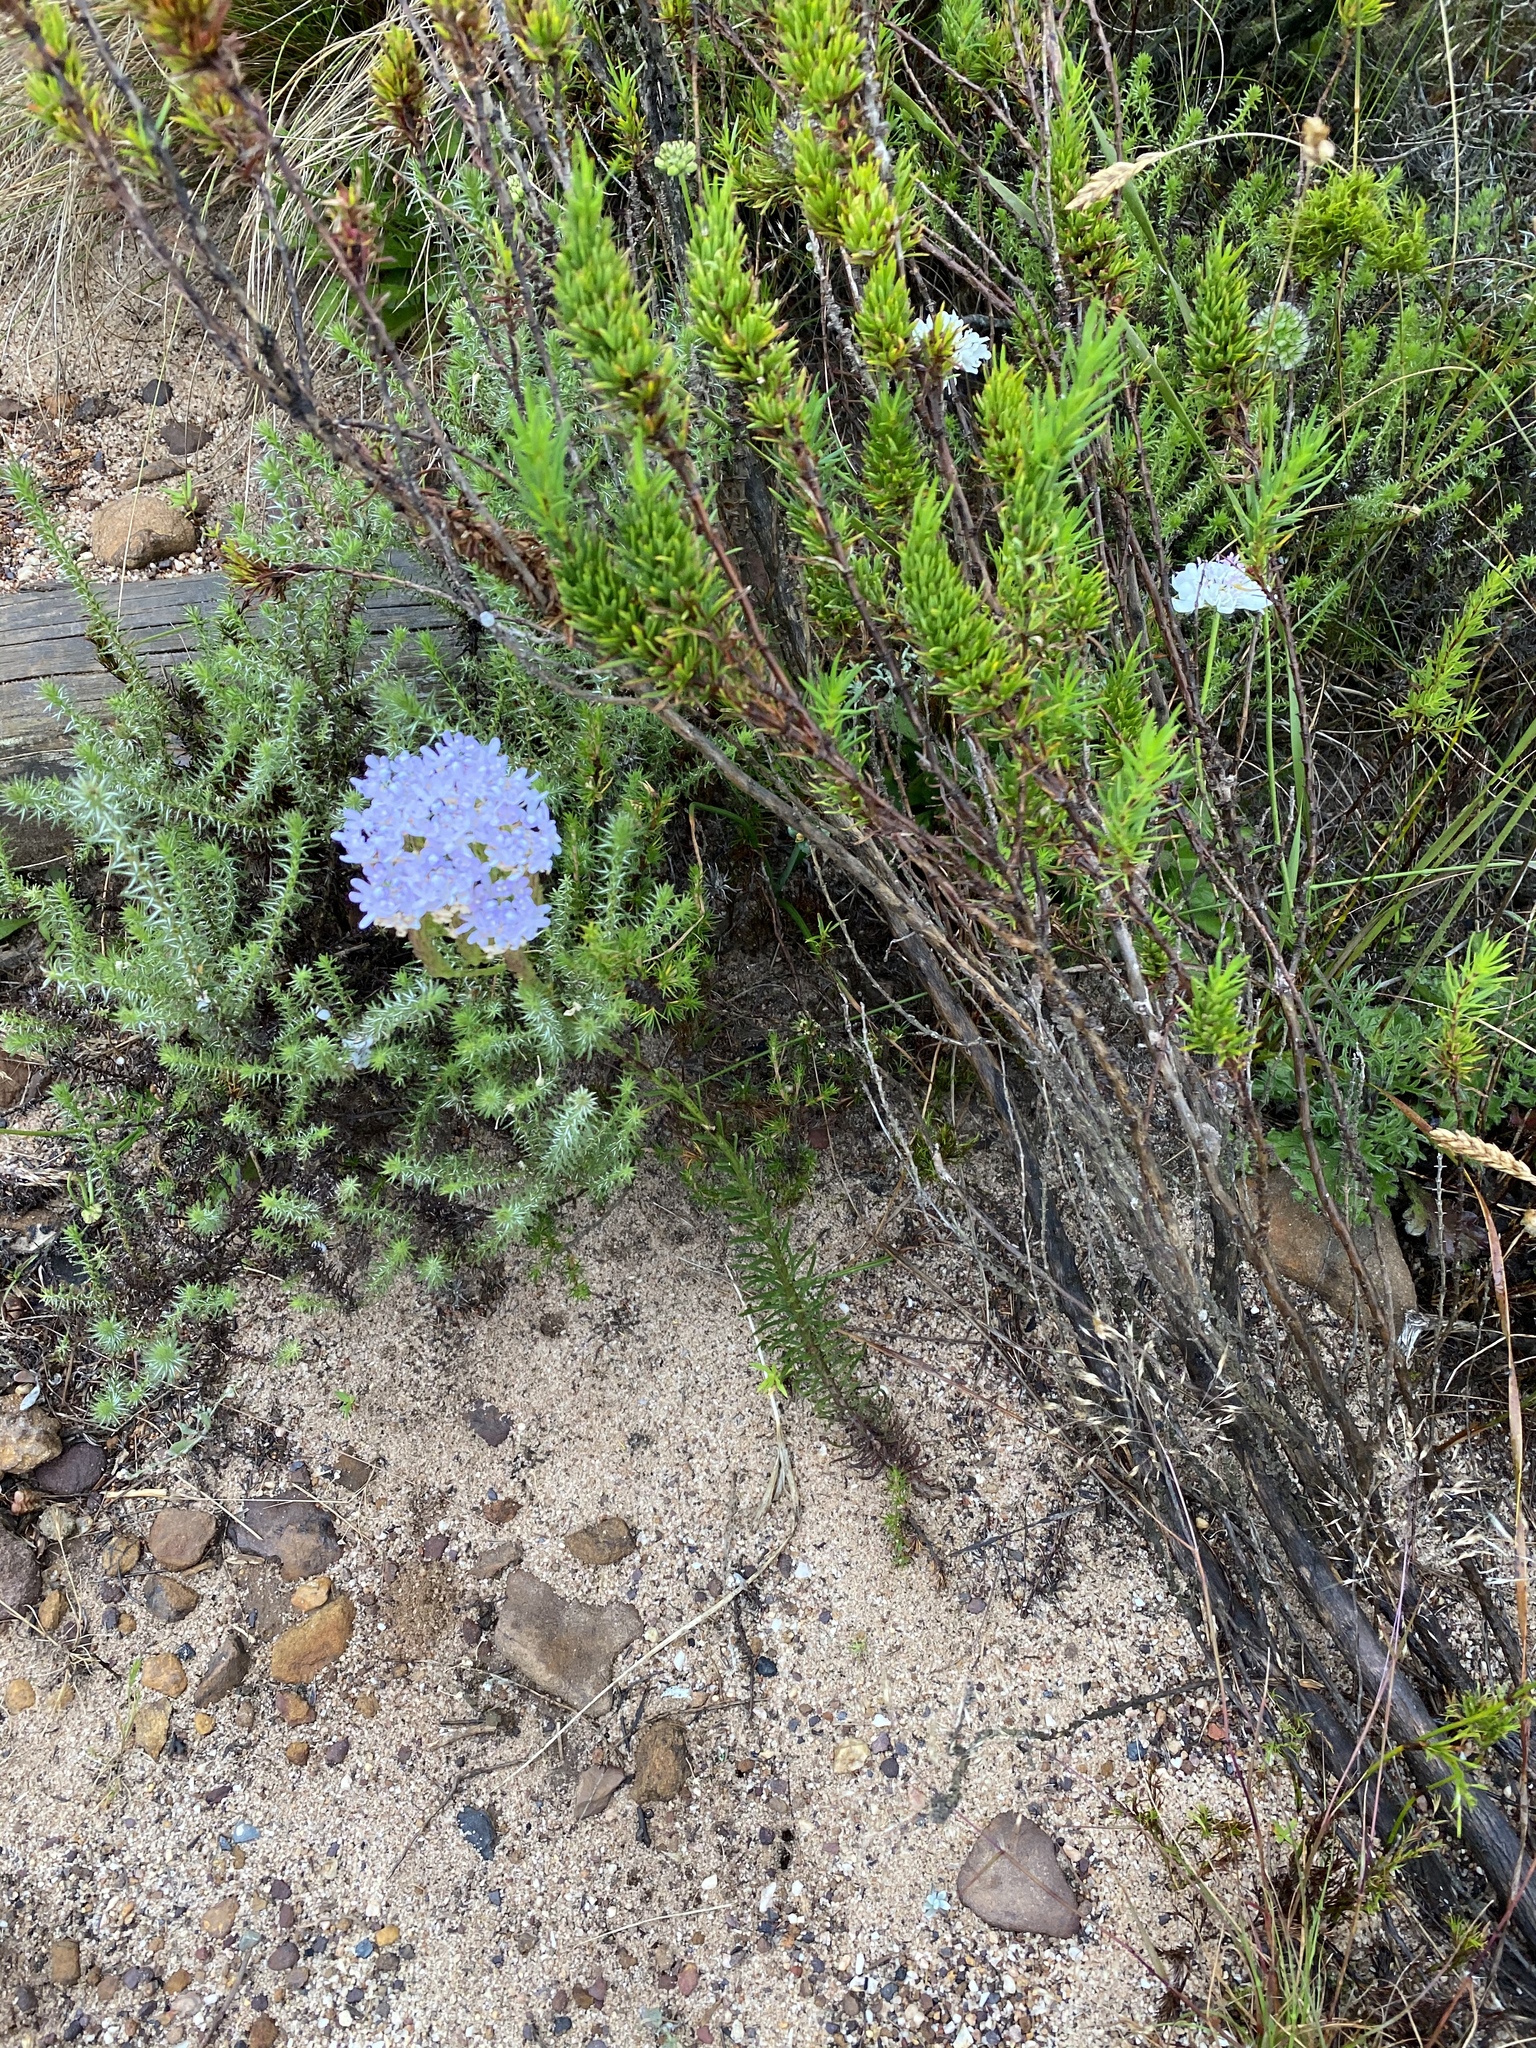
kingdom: Plantae
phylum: Tracheophyta
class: Magnoliopsida
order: Lamiales
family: Scrophulariaceae
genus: Pseudoselago
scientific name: Pseudoselago subglabra
